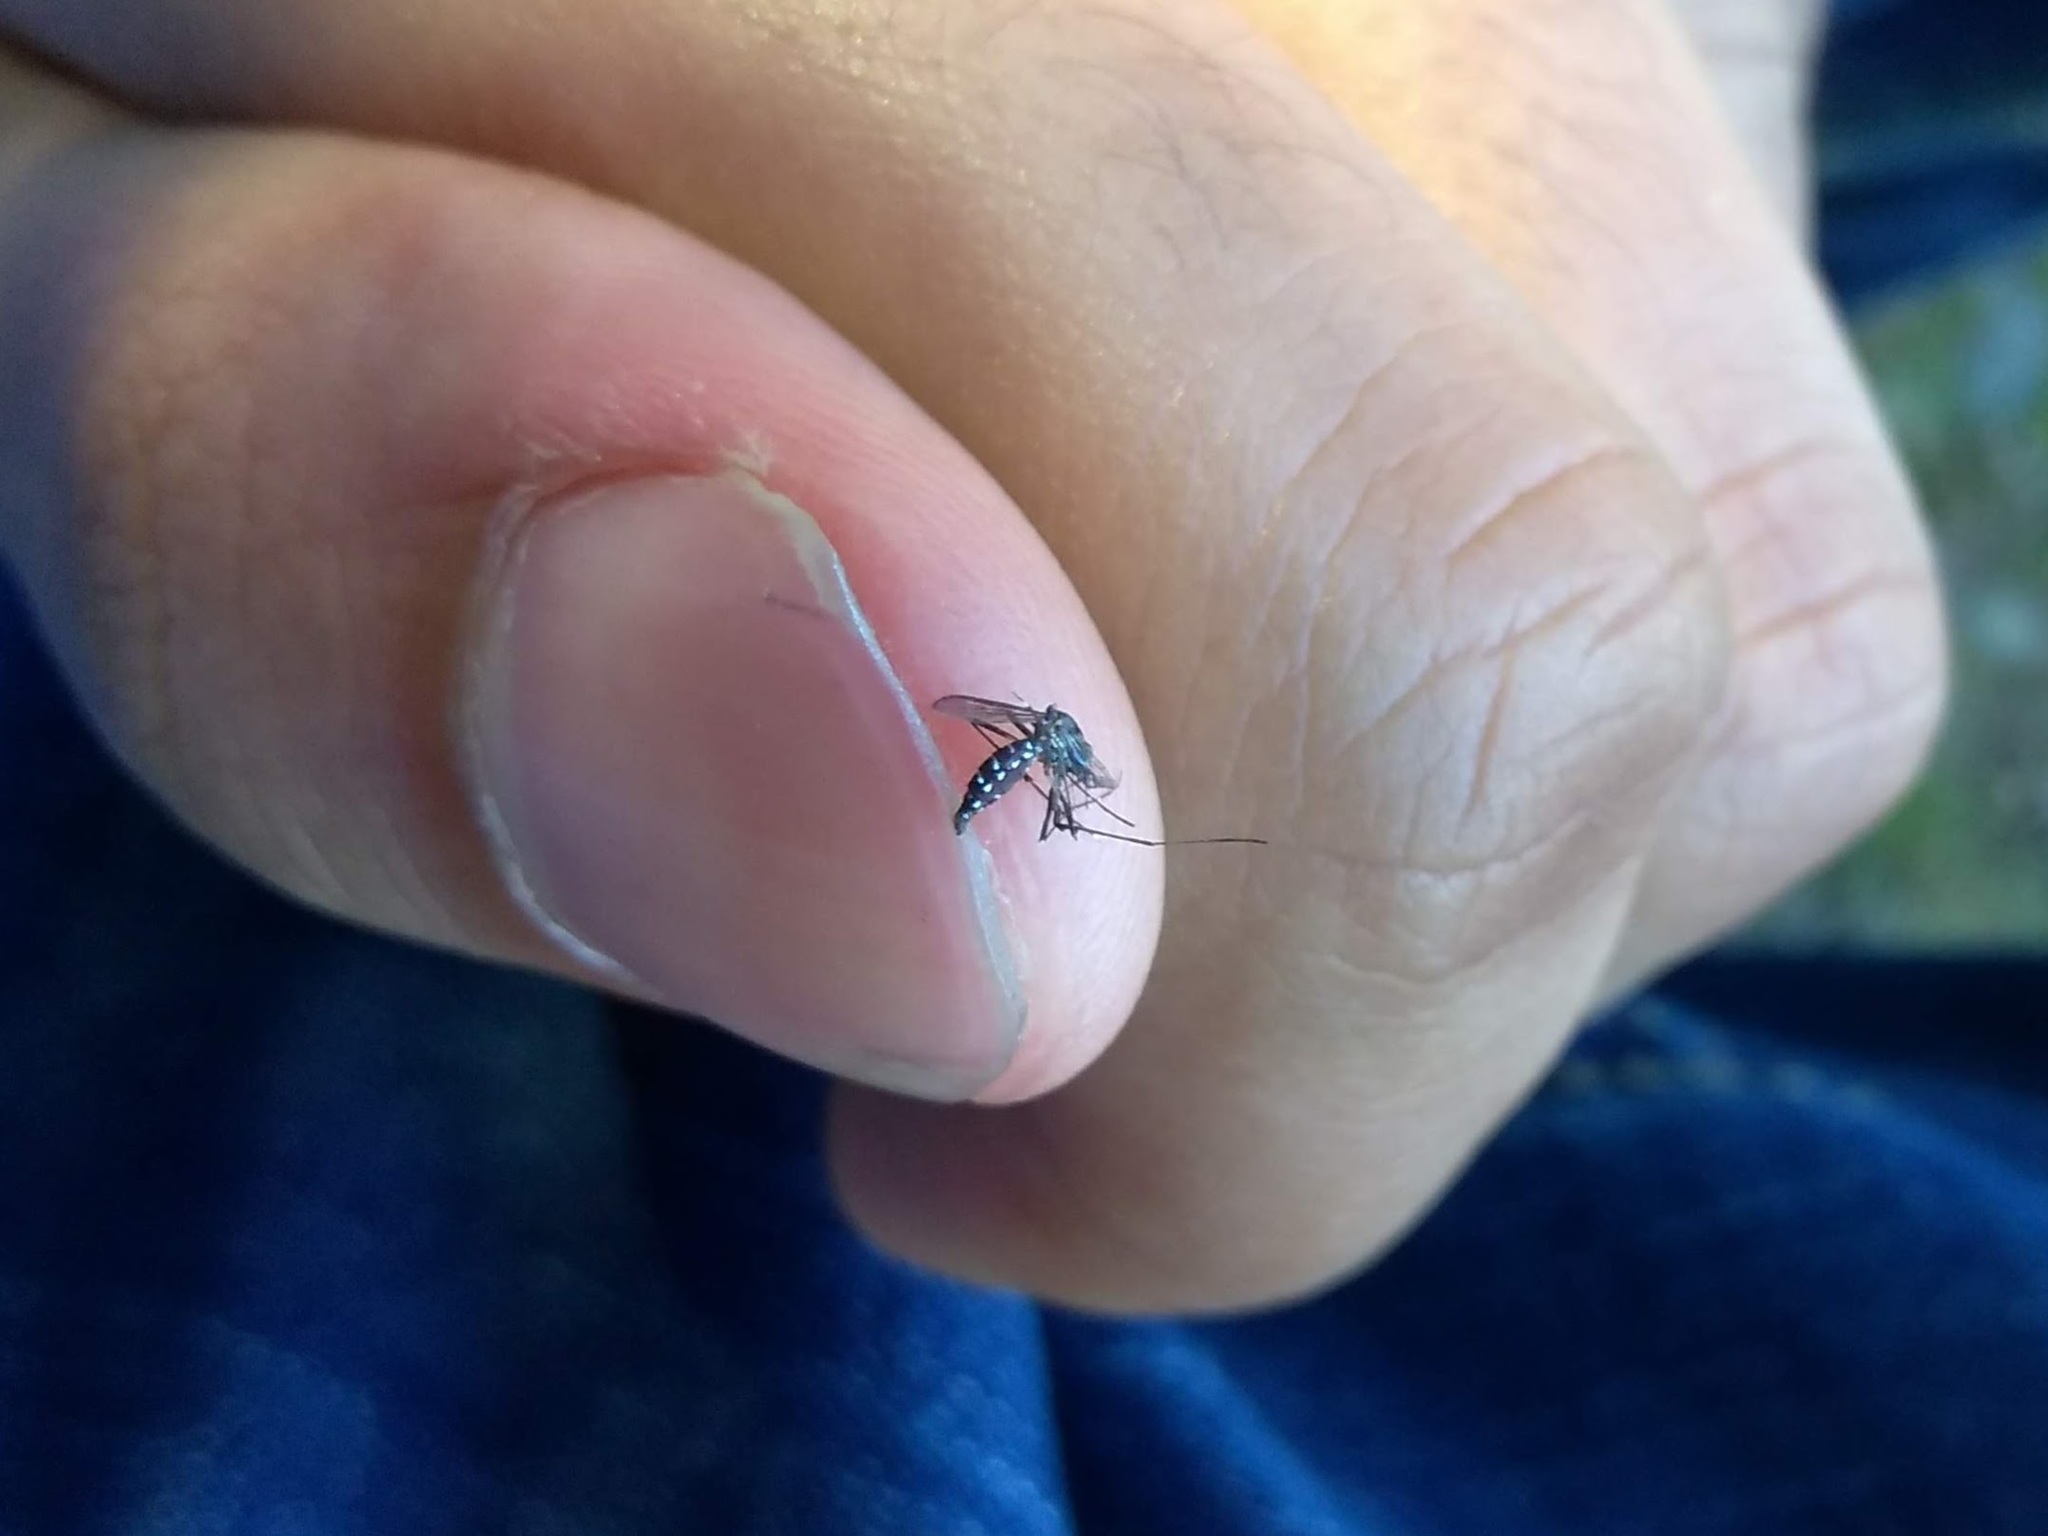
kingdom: Animalia
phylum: Arthropoda
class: Insecta
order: Diptera
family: Culicidae
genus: Aedes
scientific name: Aedes albopictus
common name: Tiger mosquito
